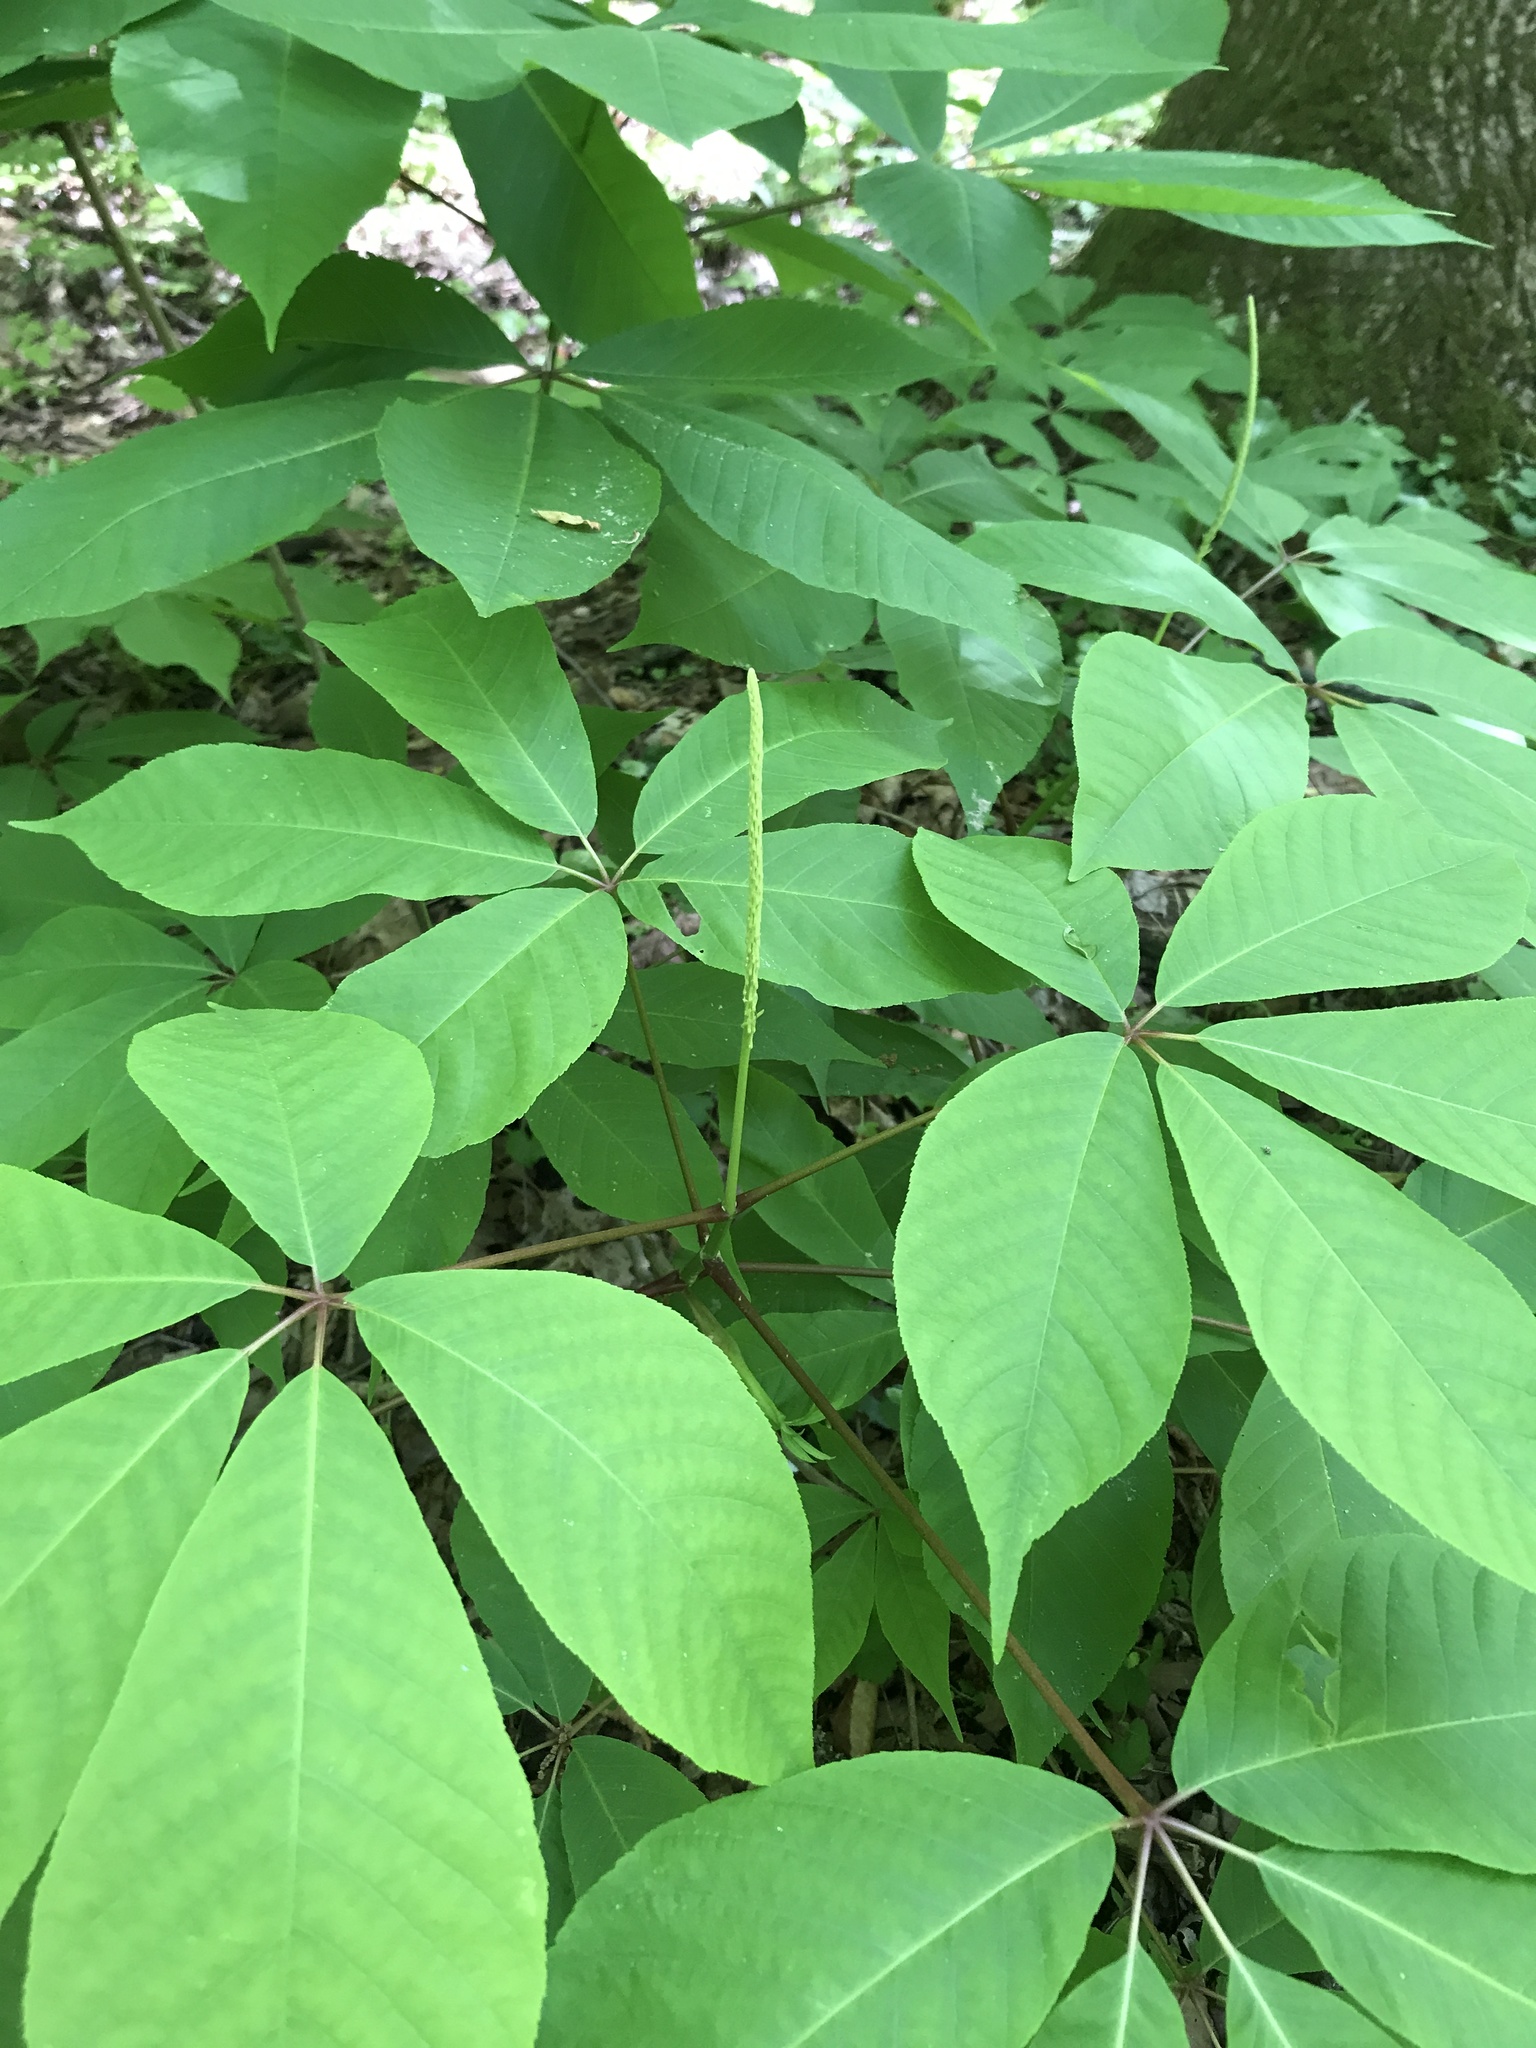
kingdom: Plantae
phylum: Tracheophyta
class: Magnoliopsida
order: Sapindales
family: Sapindaceae
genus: Aesculus
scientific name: Aesculus parviflora
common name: Bottlebrush buckeye
